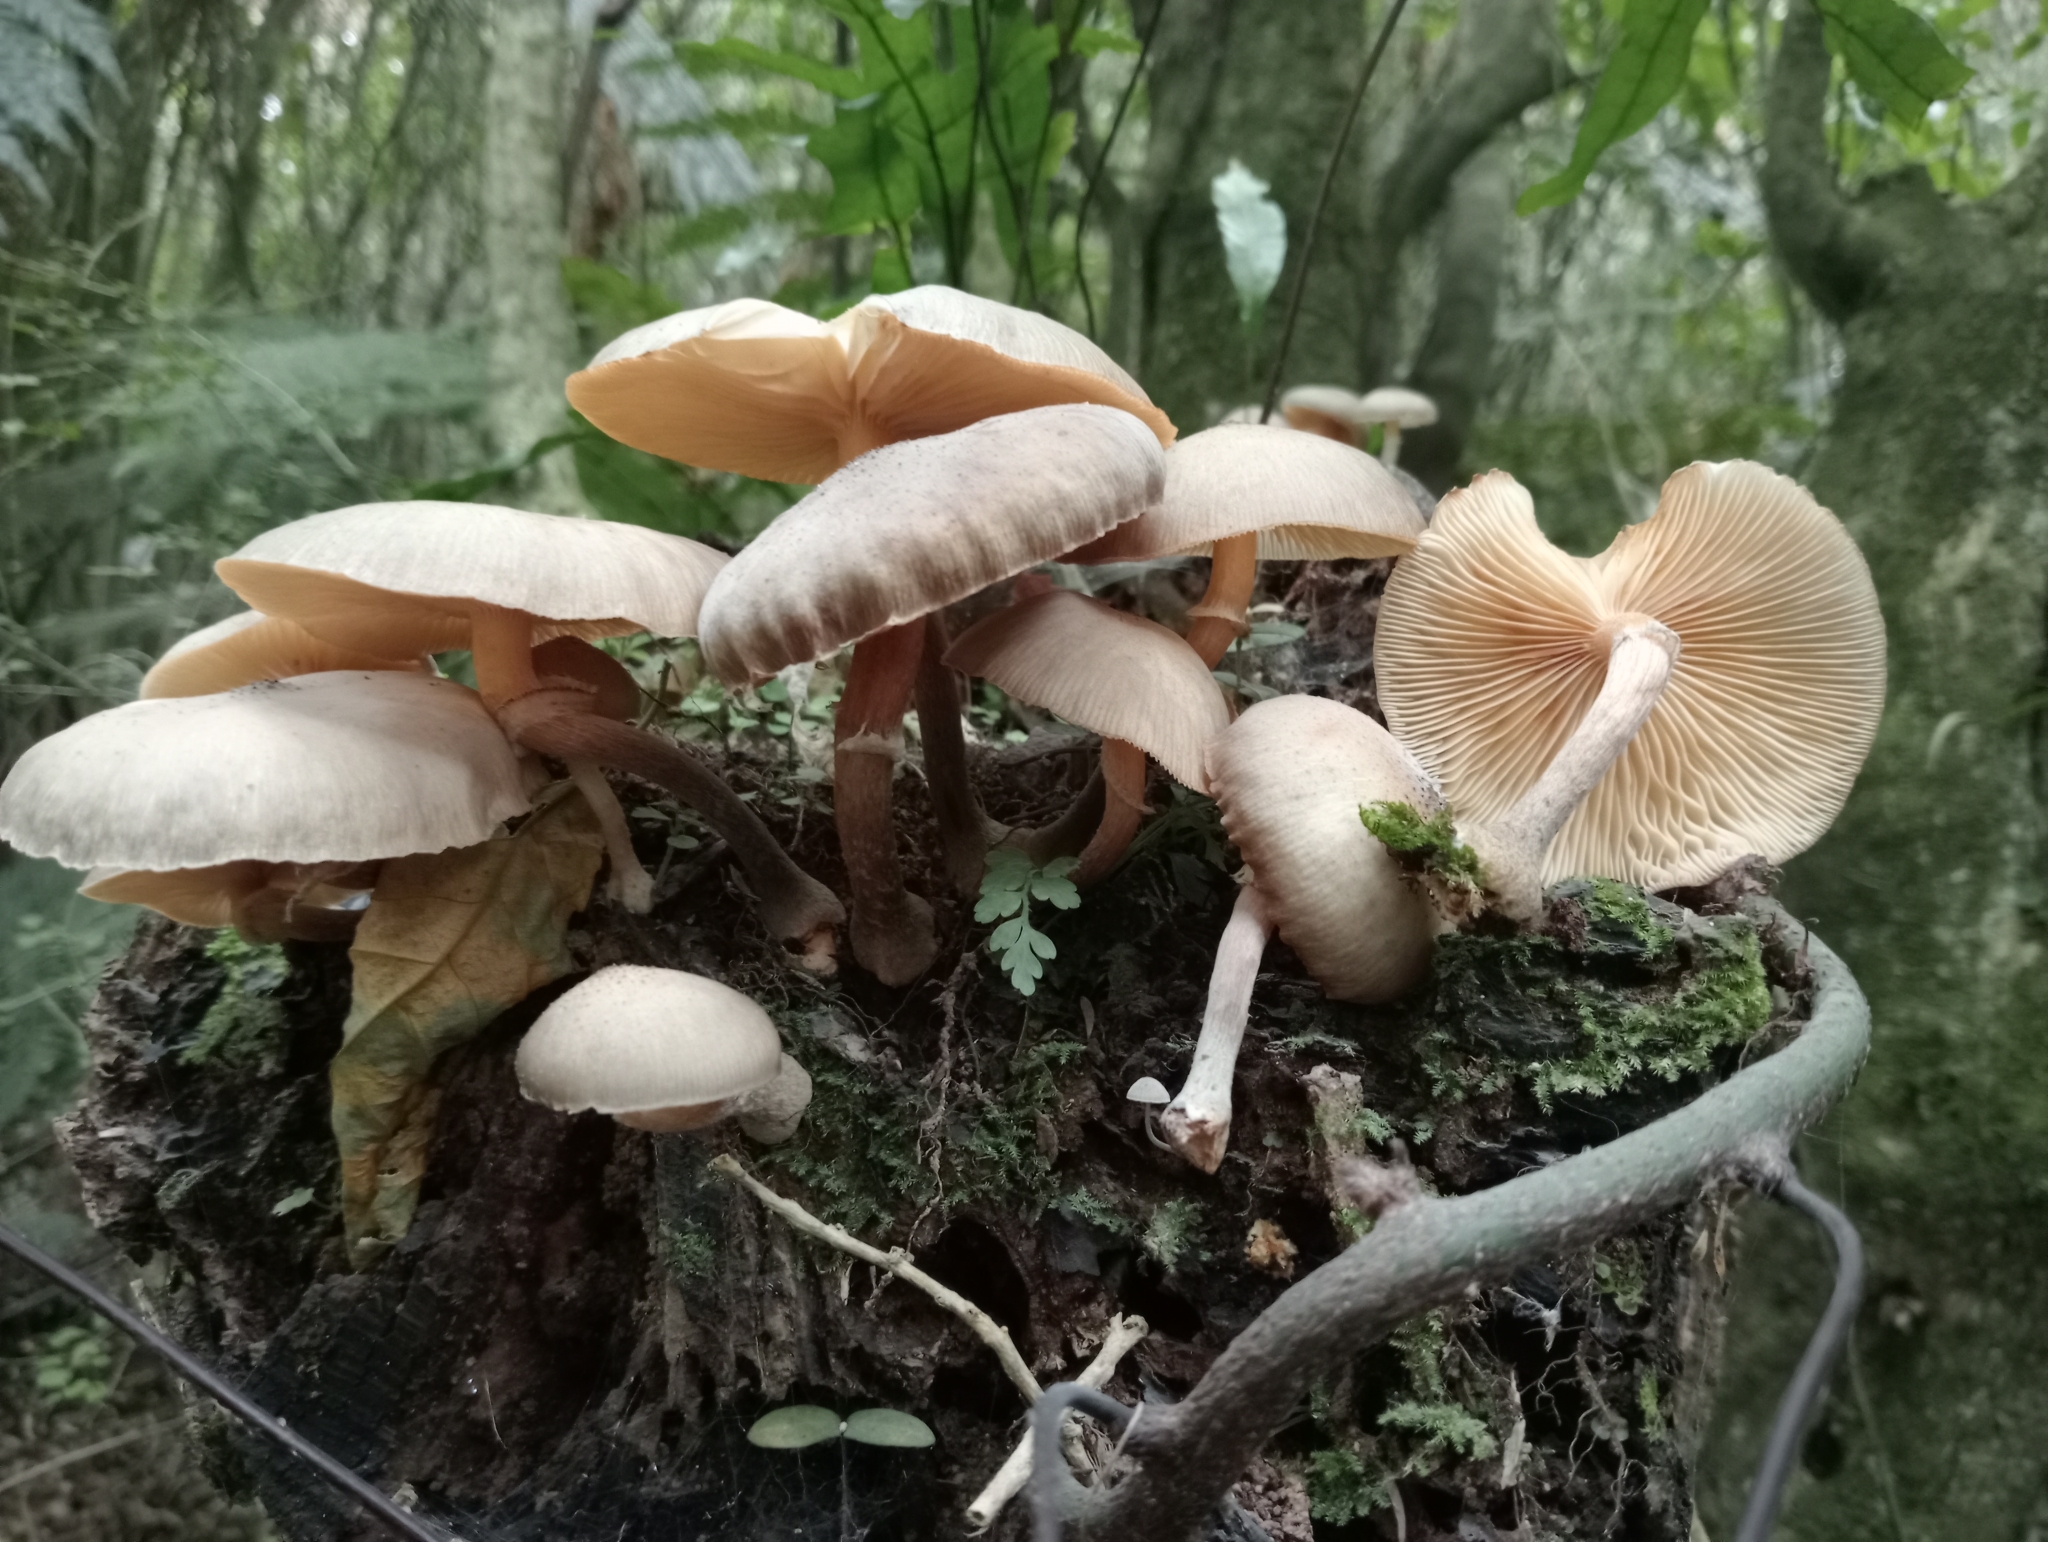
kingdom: Fungi
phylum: Basidiomycota
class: Agaricomycetes
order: Agaricales
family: Physalacriaceae
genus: Armillaria
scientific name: Armillaria novae-zelandiae
